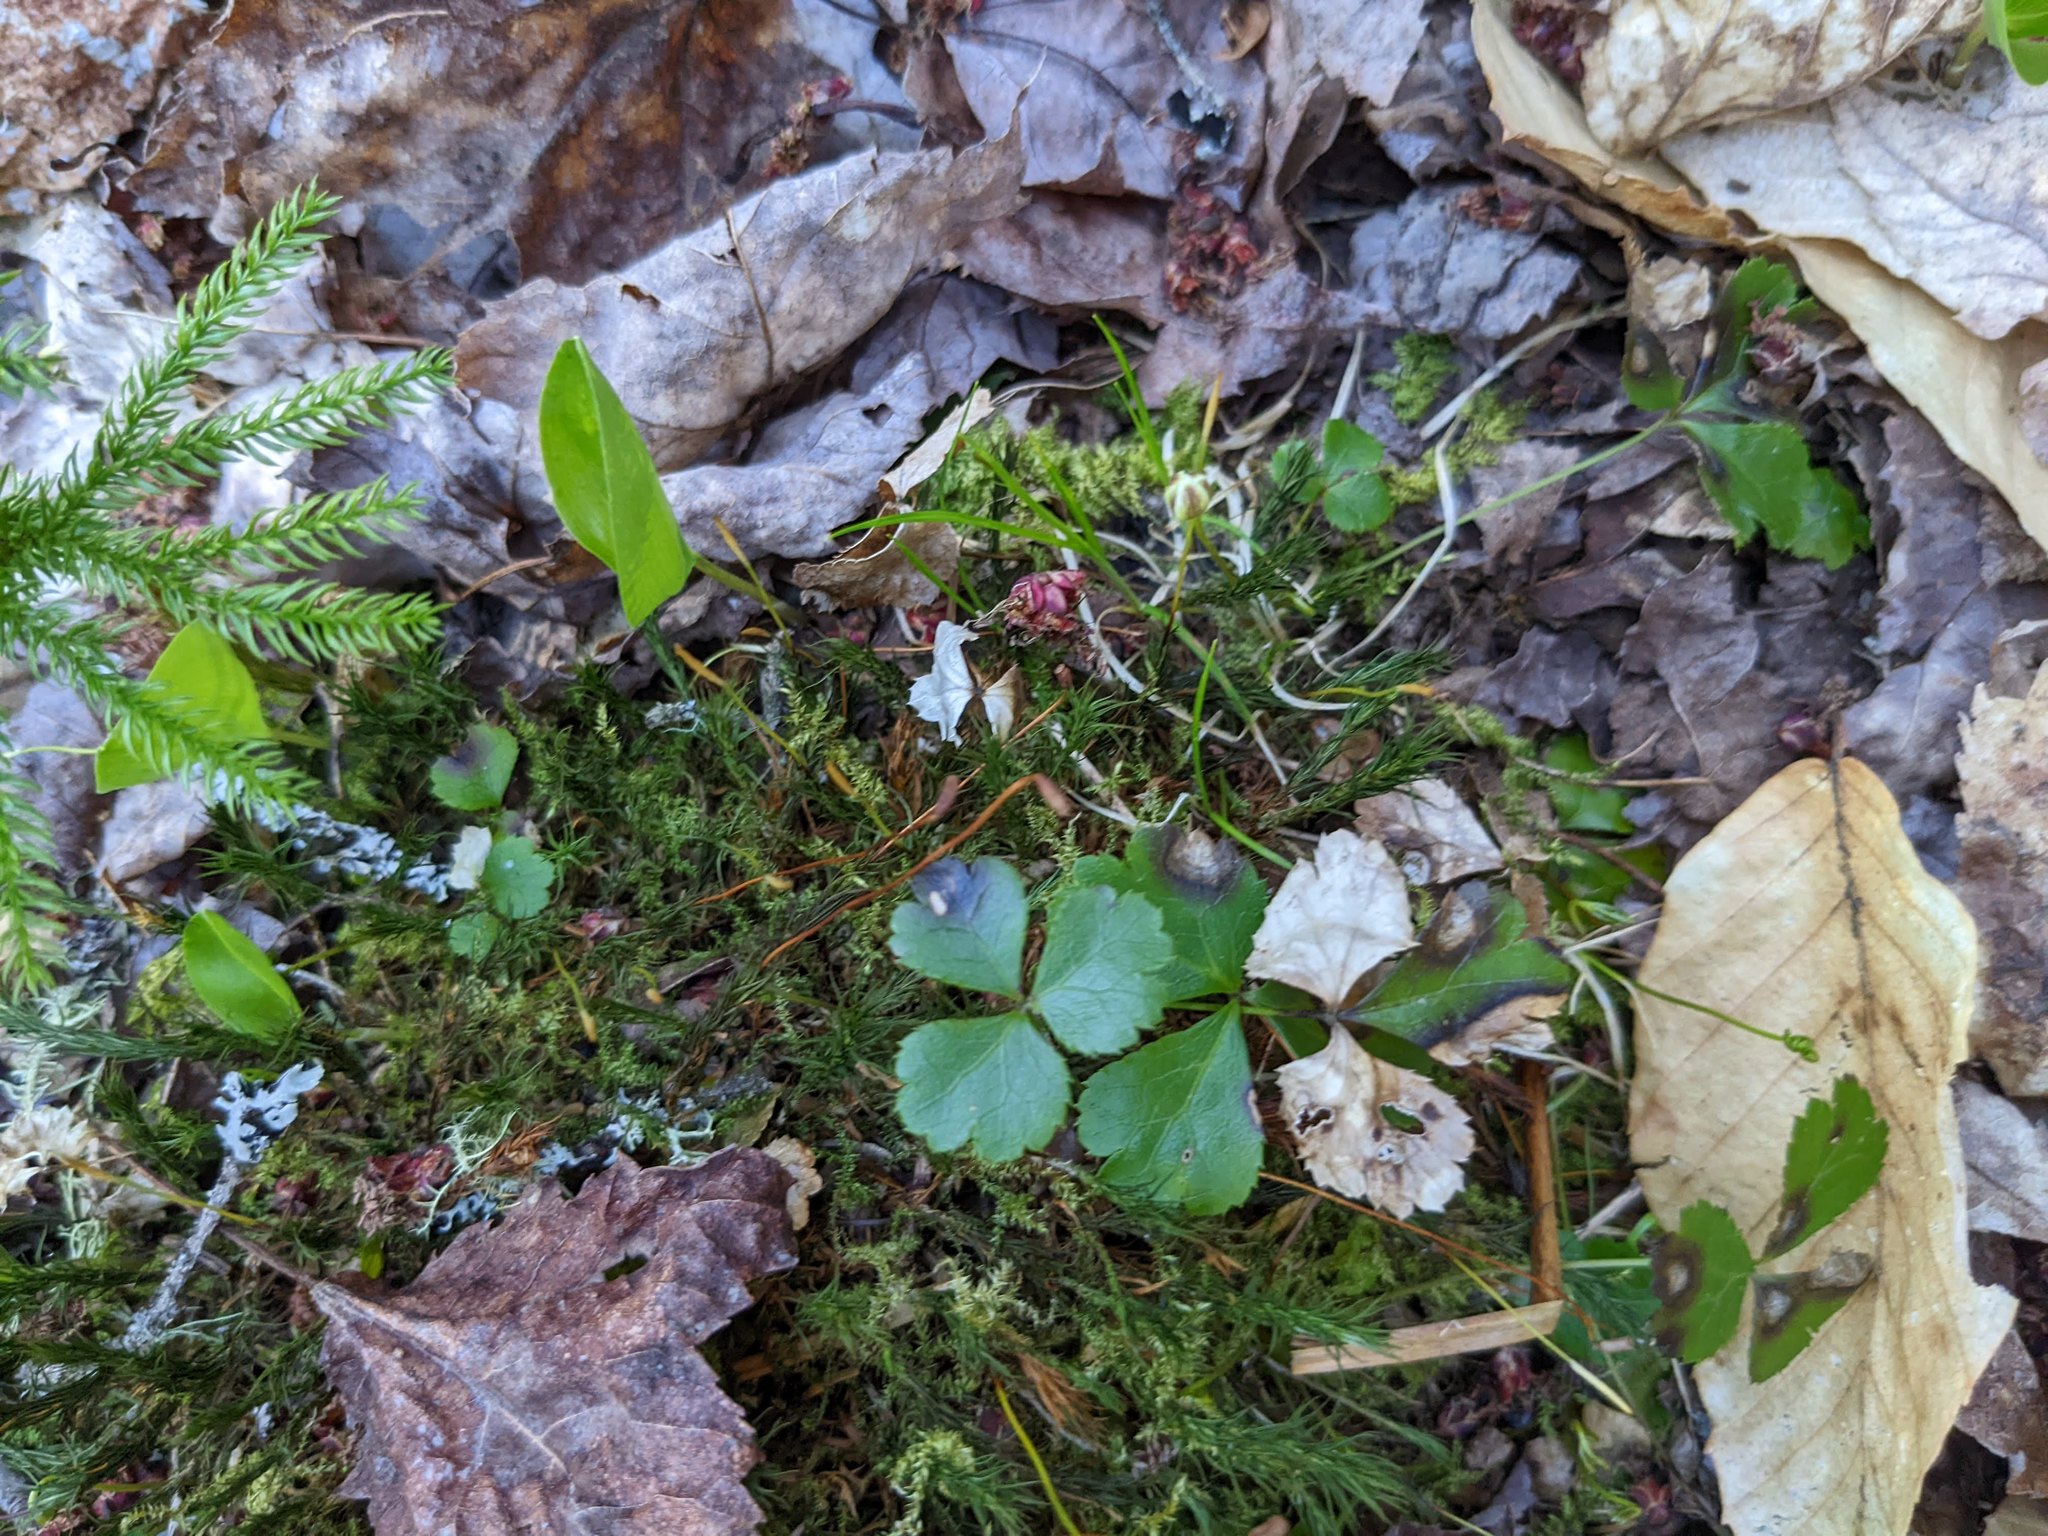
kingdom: Plantae
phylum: Tracheophyta
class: Magnoliopsida
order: Ranunculales
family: Ranunculaceae
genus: Coptis
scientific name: Coptis trifolia
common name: Canker-root
